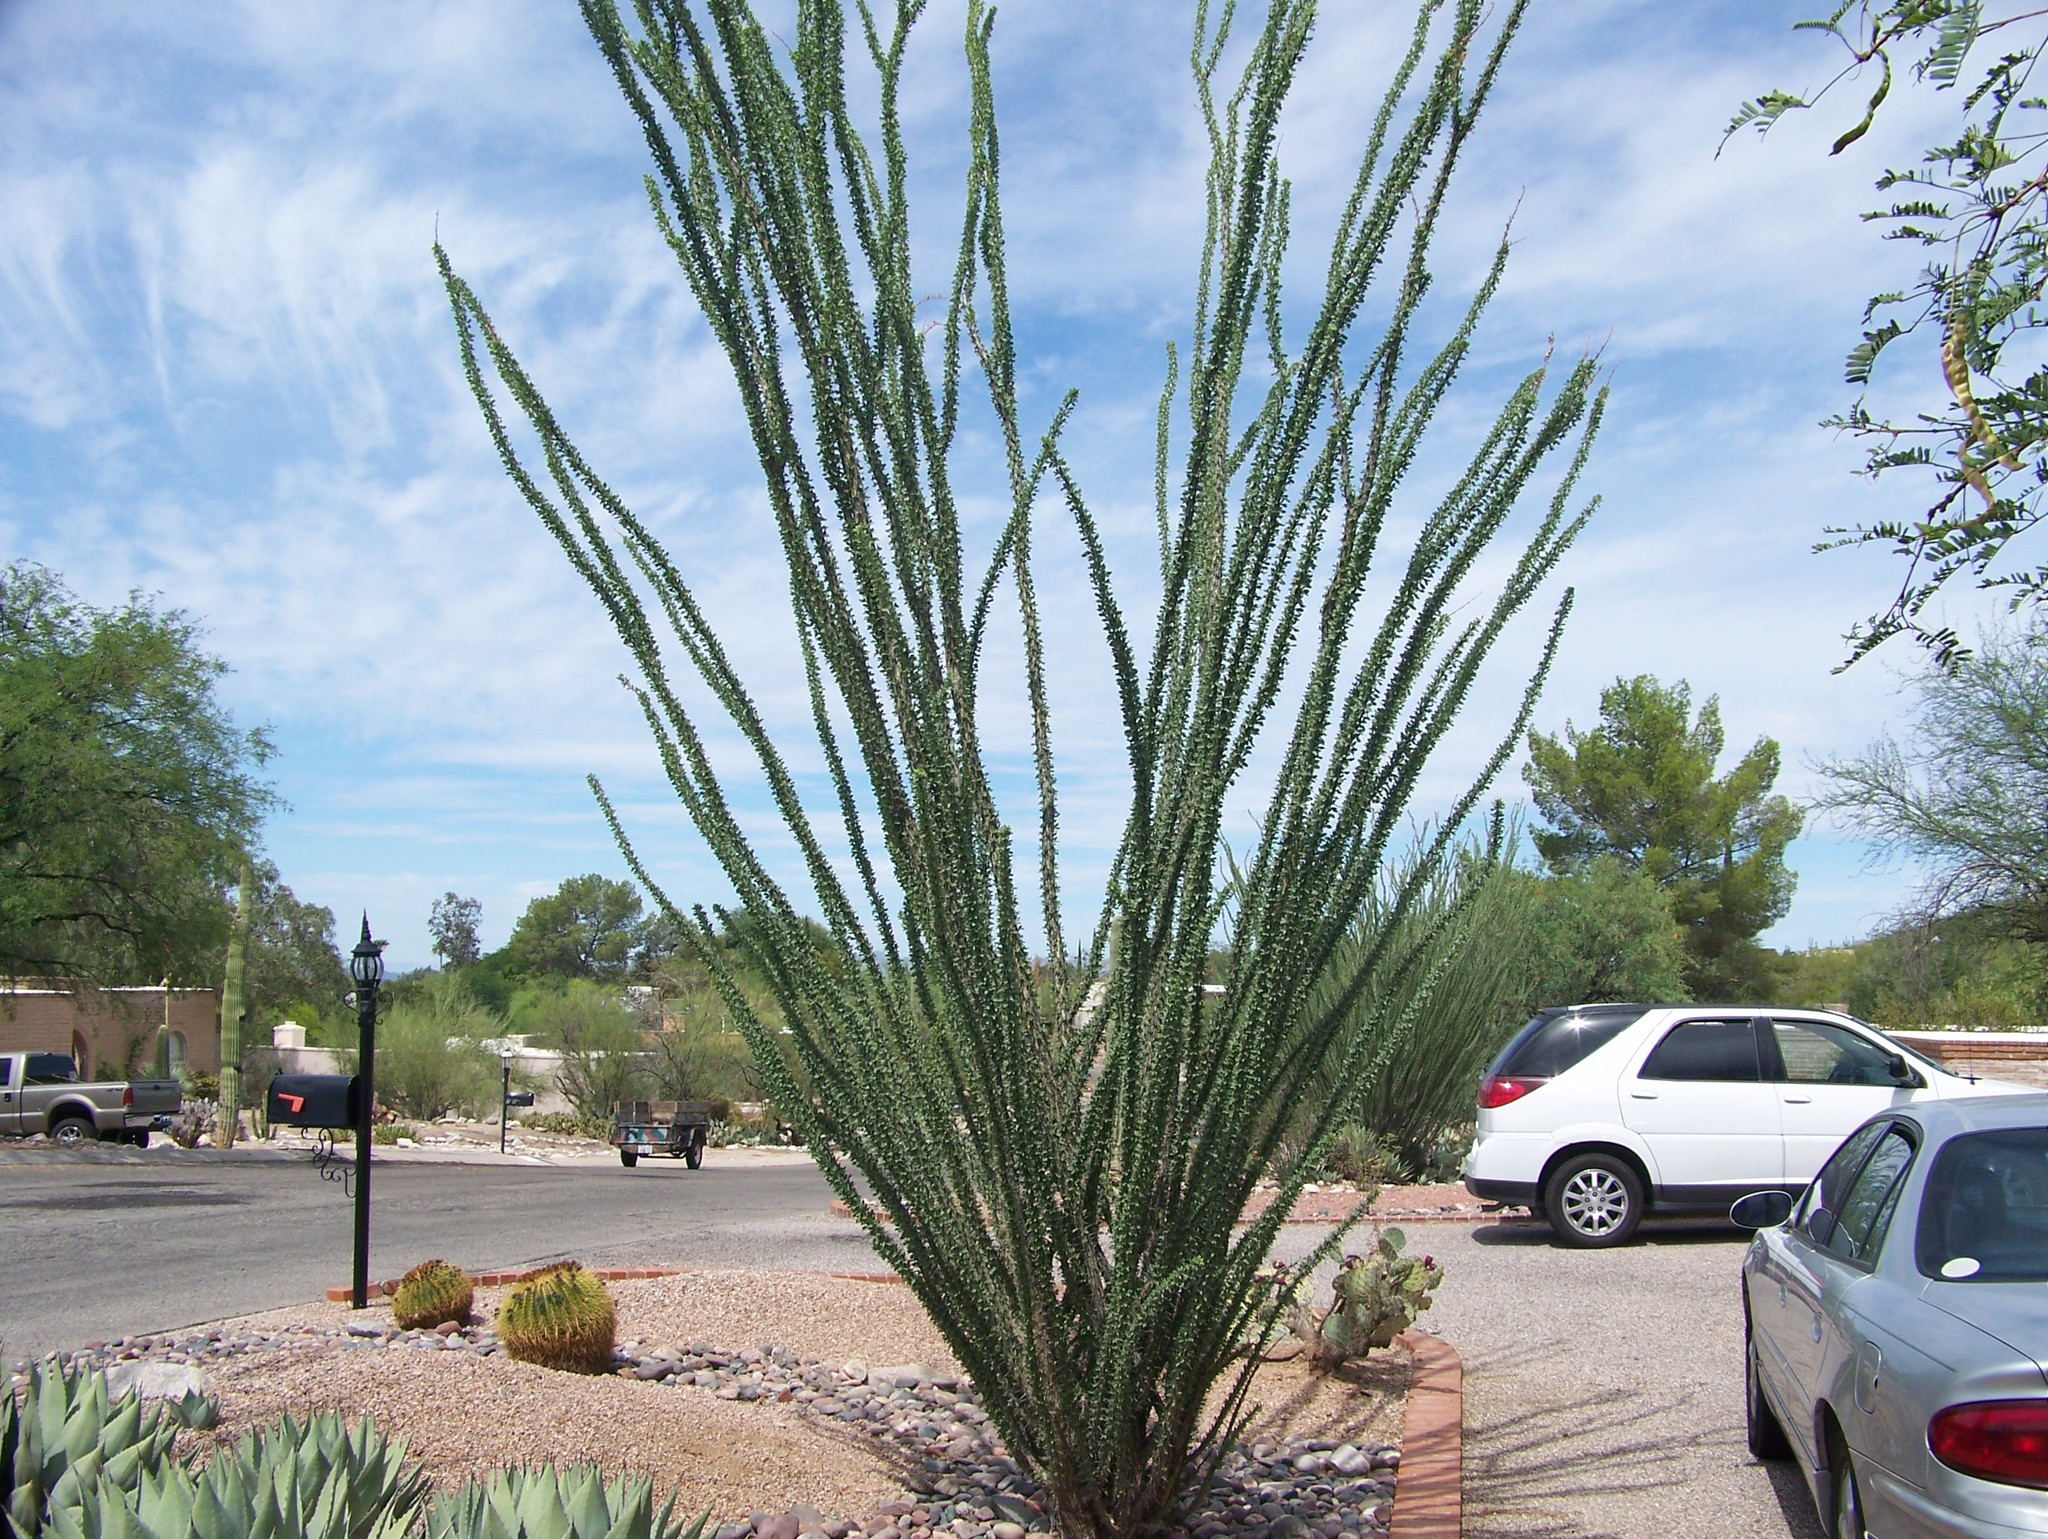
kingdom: Plantae
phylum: Tracheophyta
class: Magnoliopsida
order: Ericales
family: Fouquieriaceae
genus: Fouquieria
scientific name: Fouquieria splendens
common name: Vine-cactus
